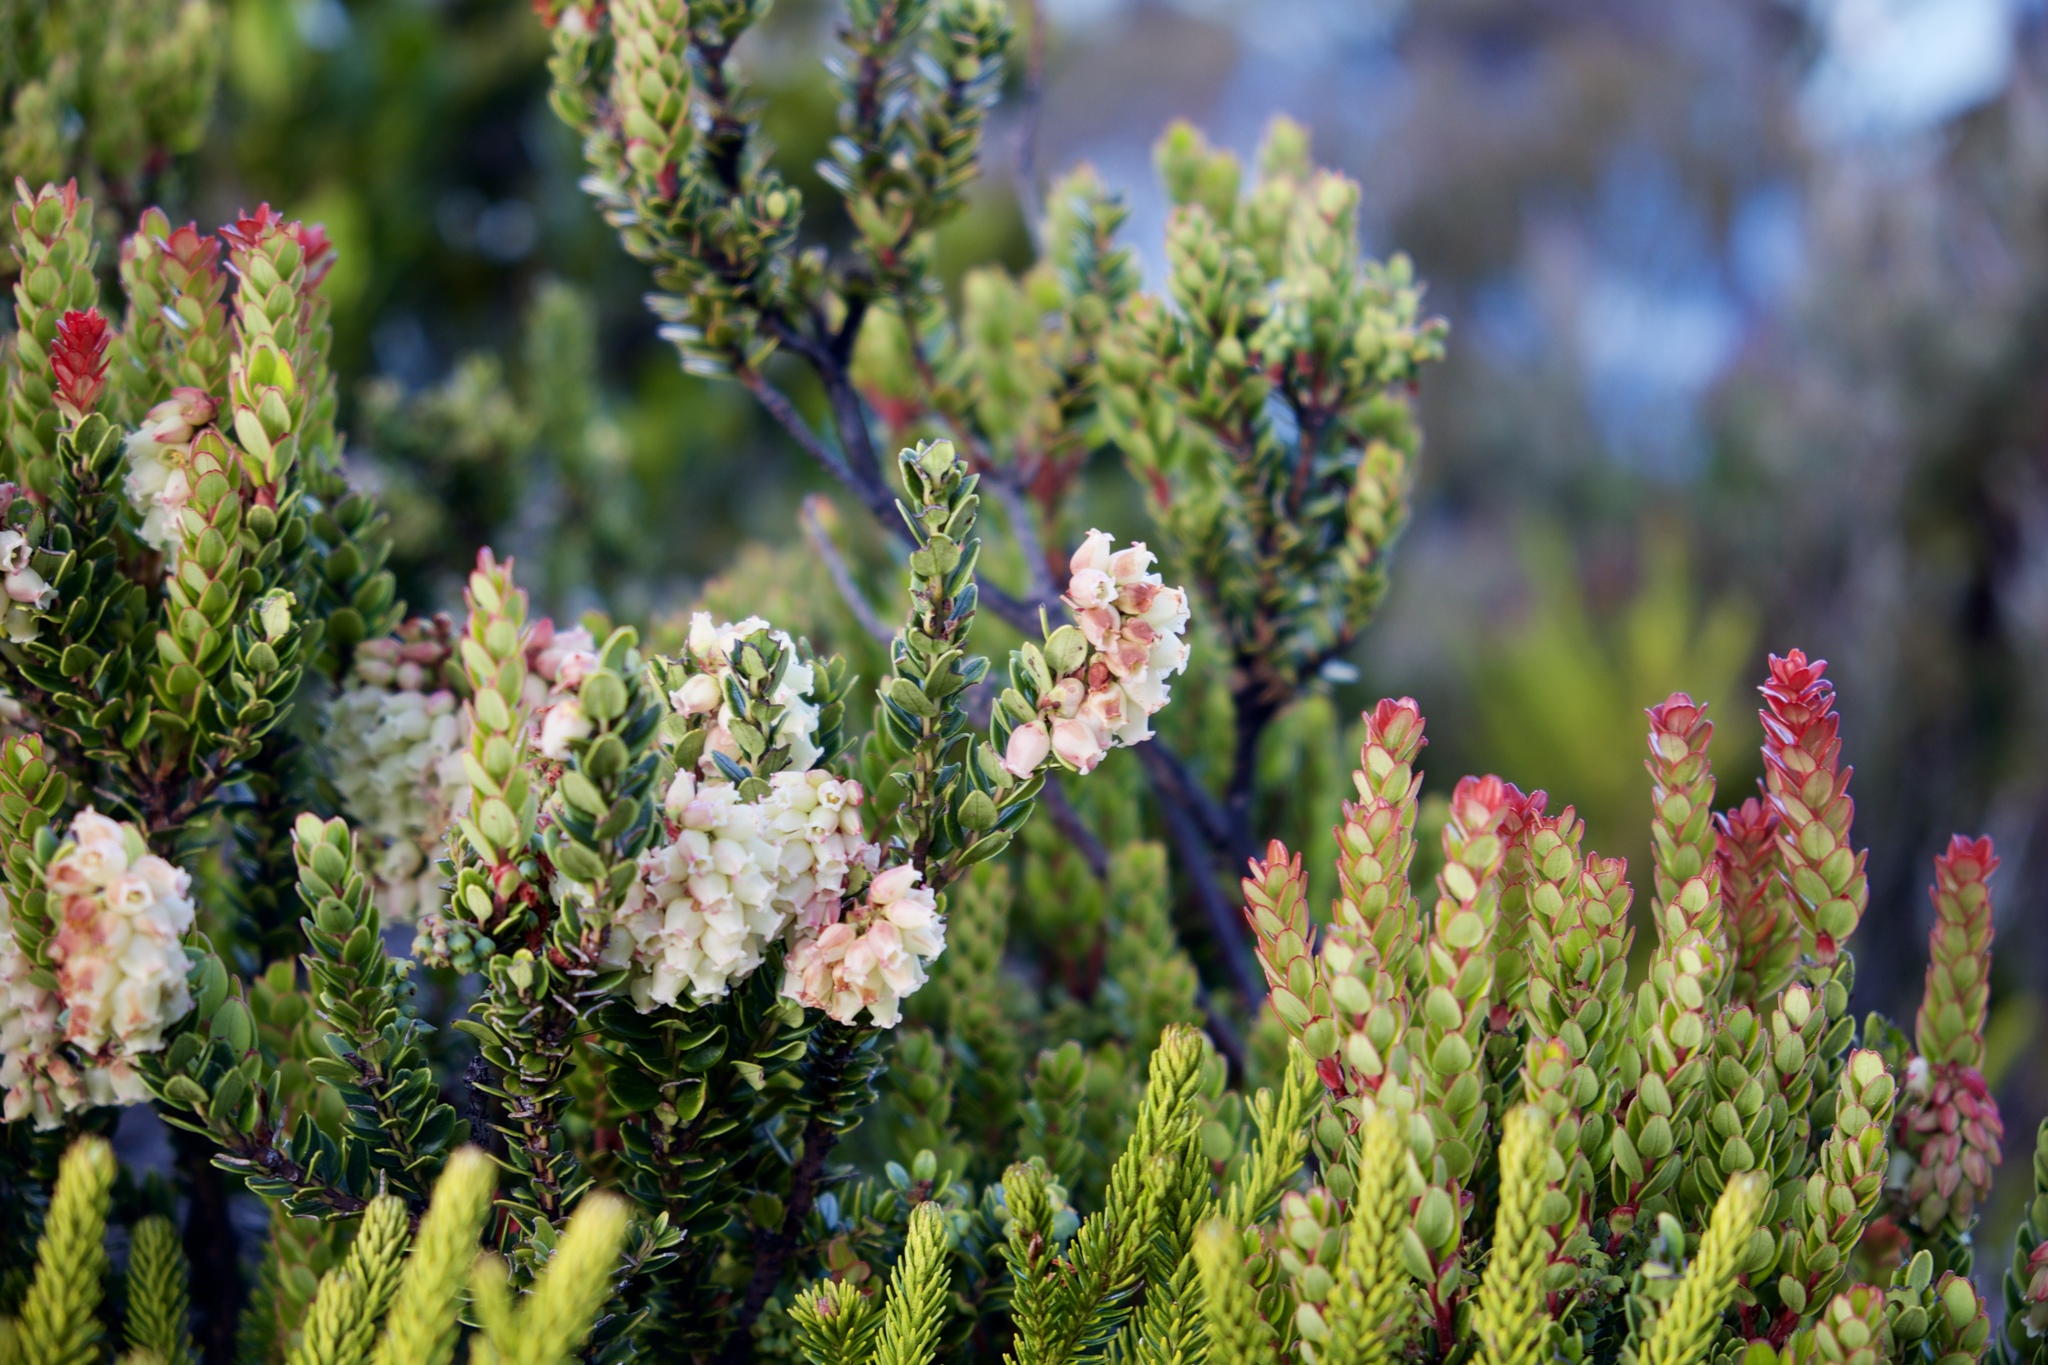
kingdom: Plantae
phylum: Tracheophyta
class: Magnoliopsida
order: Ericales
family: Ericaceae
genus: Vaccinium
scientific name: Vaccinium coriaceum
